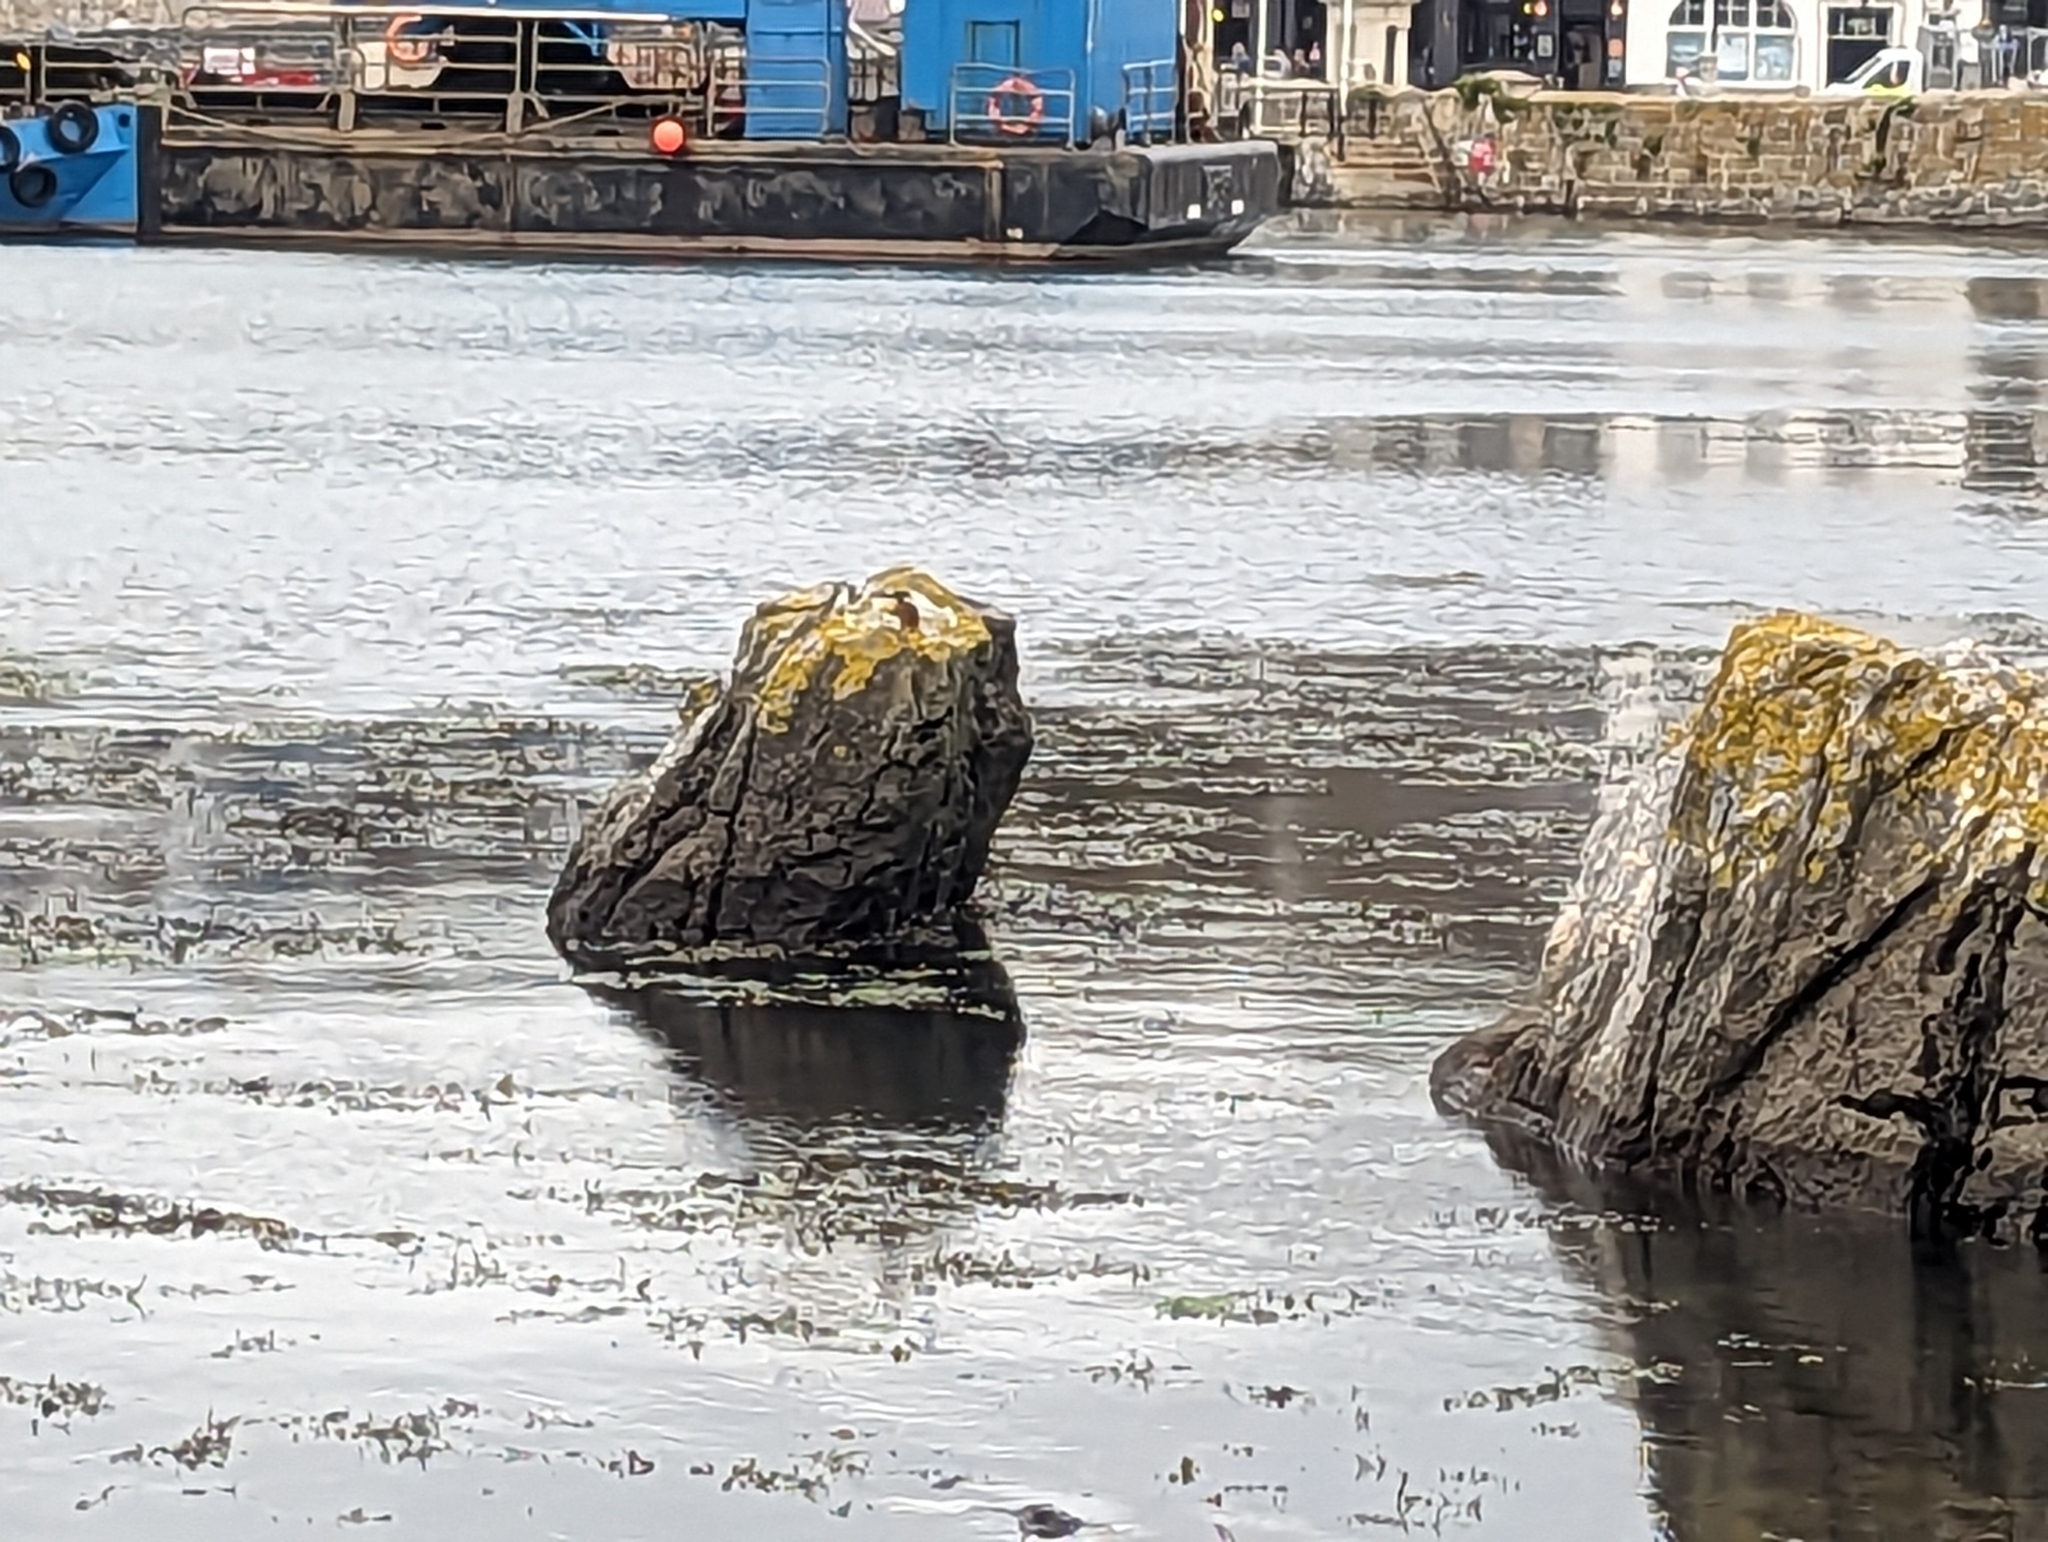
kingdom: Animalia
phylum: Chordata
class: Aves
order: Coraciiformes
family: Alcedinidae
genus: Alcedo
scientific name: Alcedo atthis
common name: Common kingfisher
